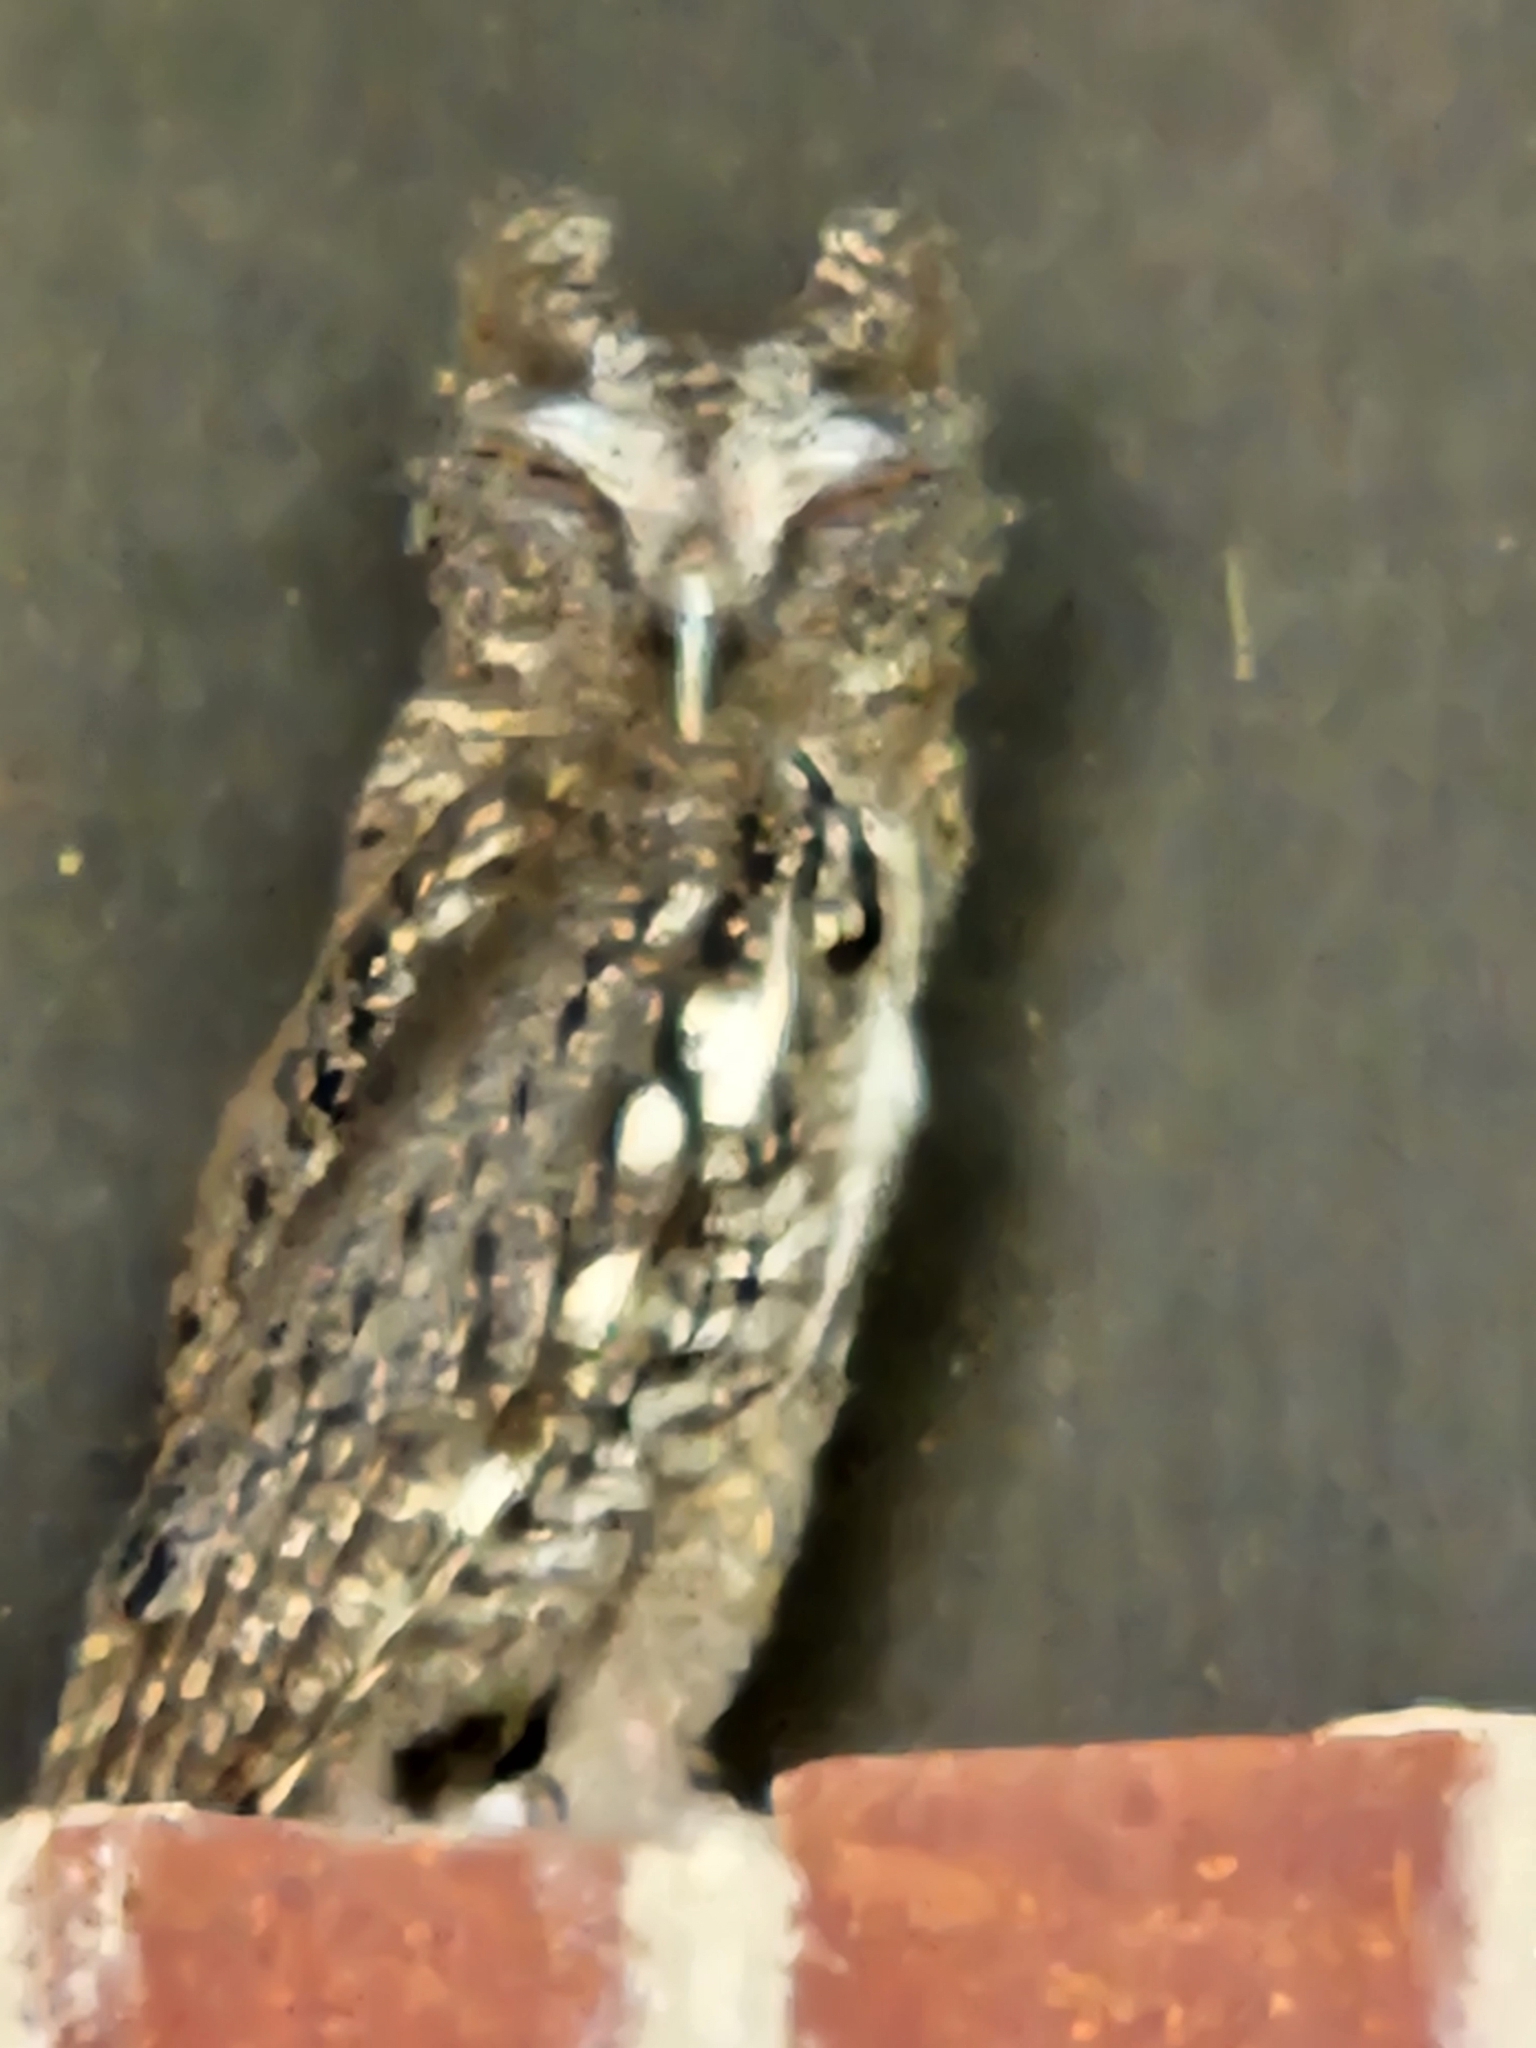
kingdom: Animalia
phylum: Chordata
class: Aves
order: Strigiformes
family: Strigidae
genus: Megascops
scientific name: Megascops asio
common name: Eastern screech-owl
